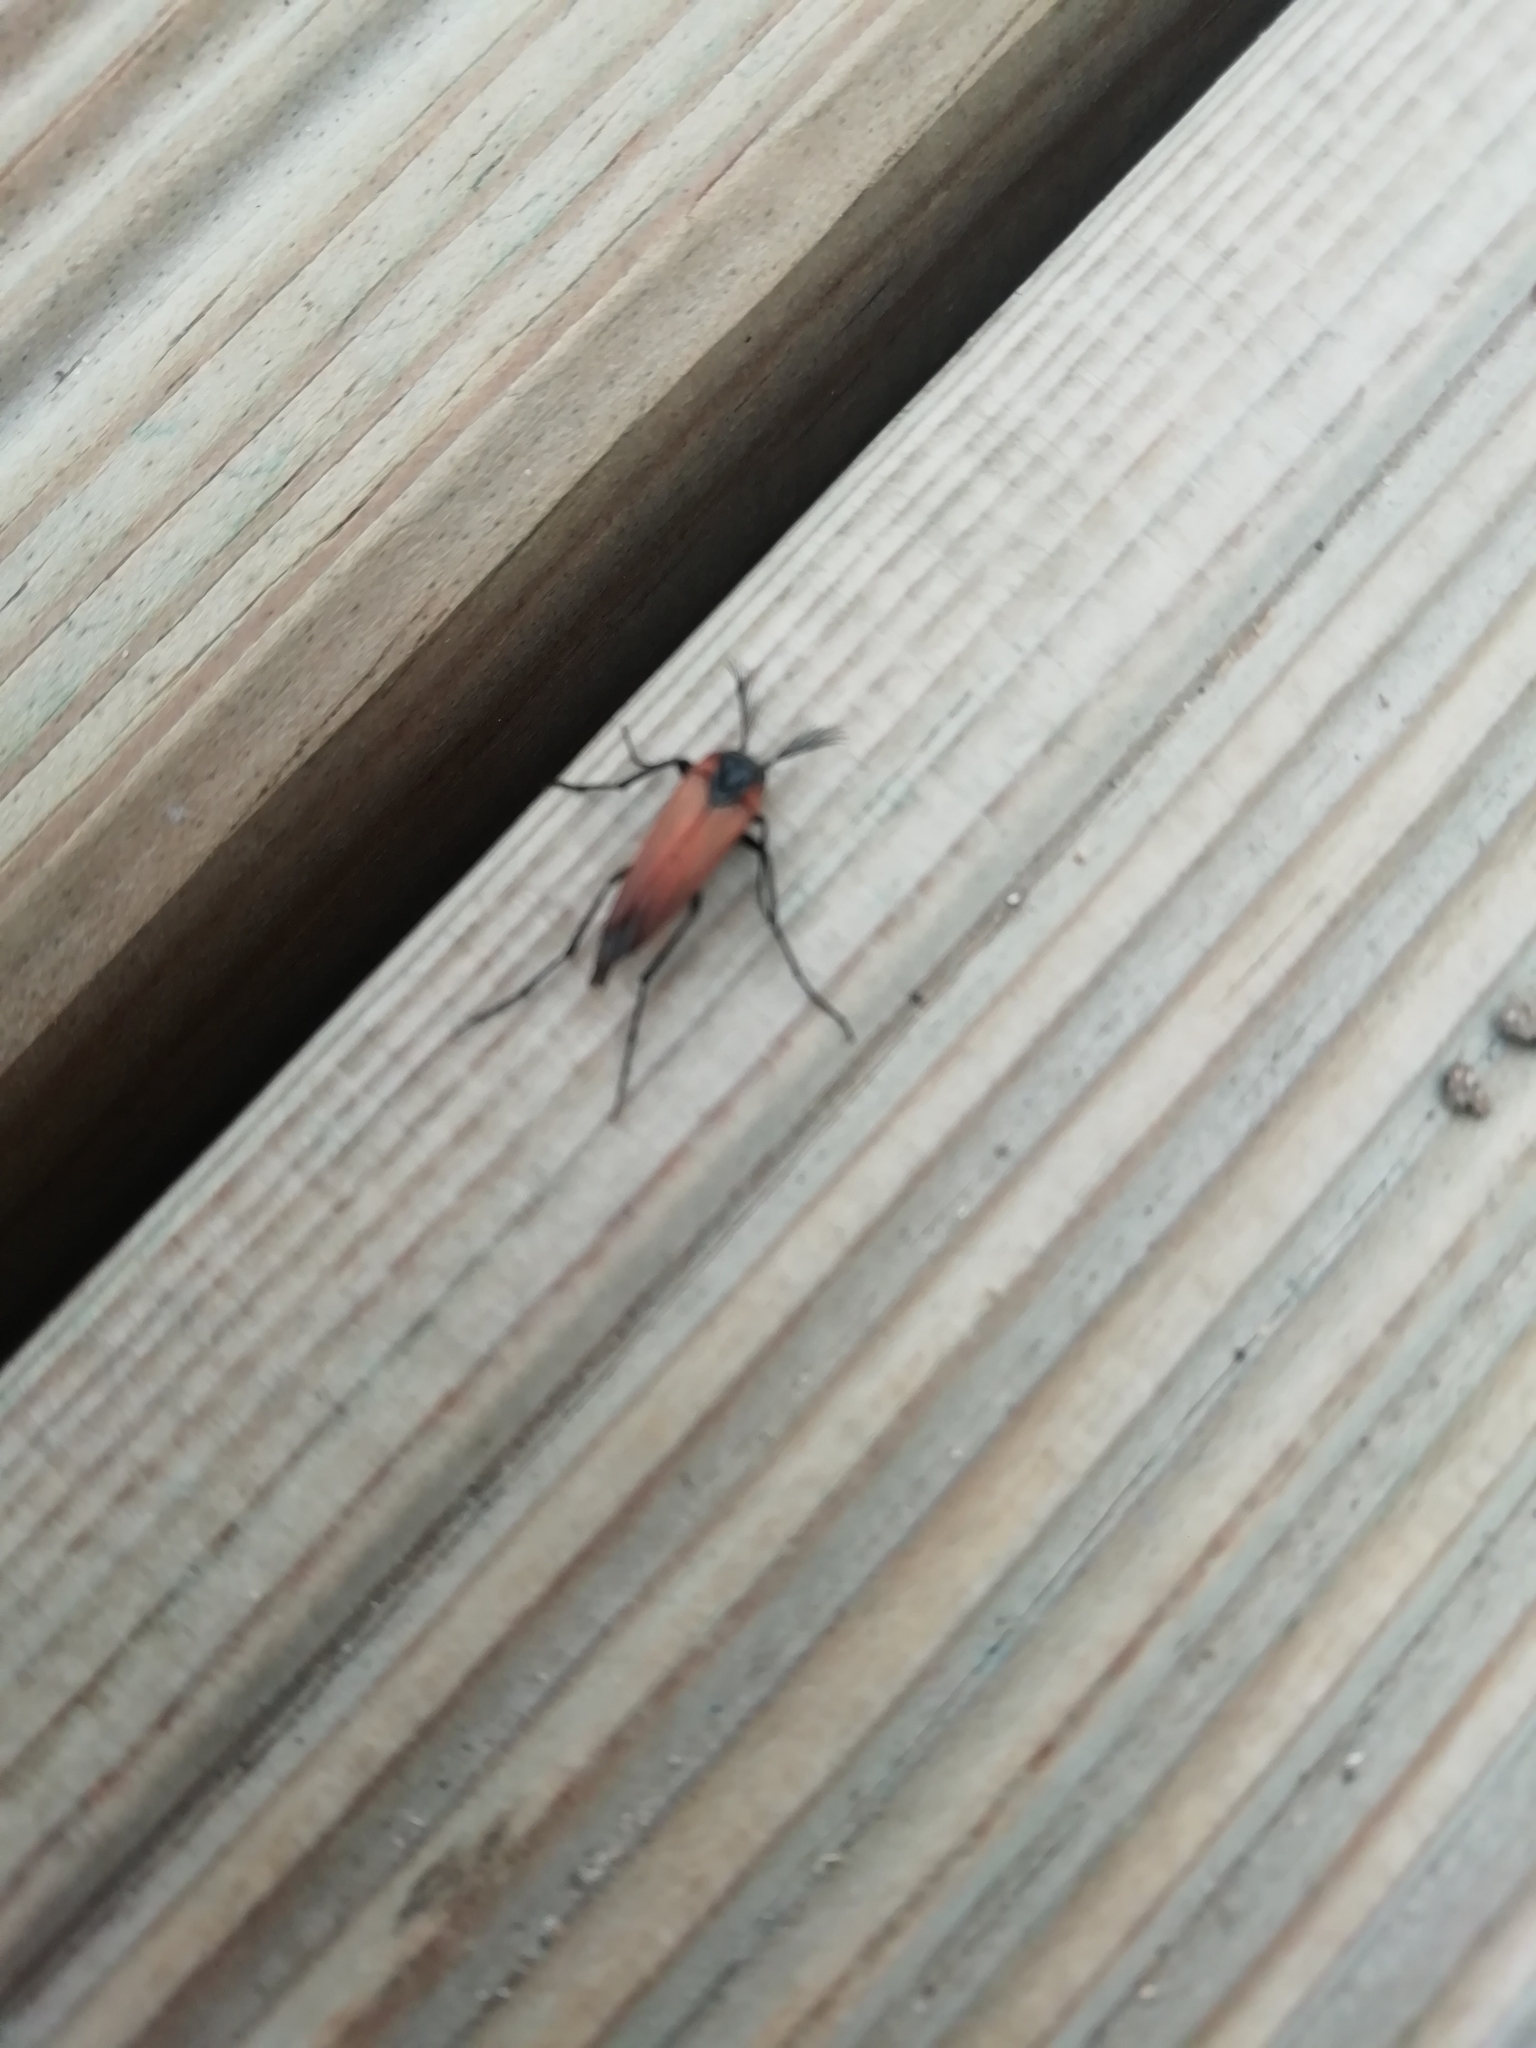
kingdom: Animalia
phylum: Arthropoda
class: Insecta
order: Coleoptera
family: Ripiphoridae
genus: Metoecus
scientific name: Metoecus paradoxus
